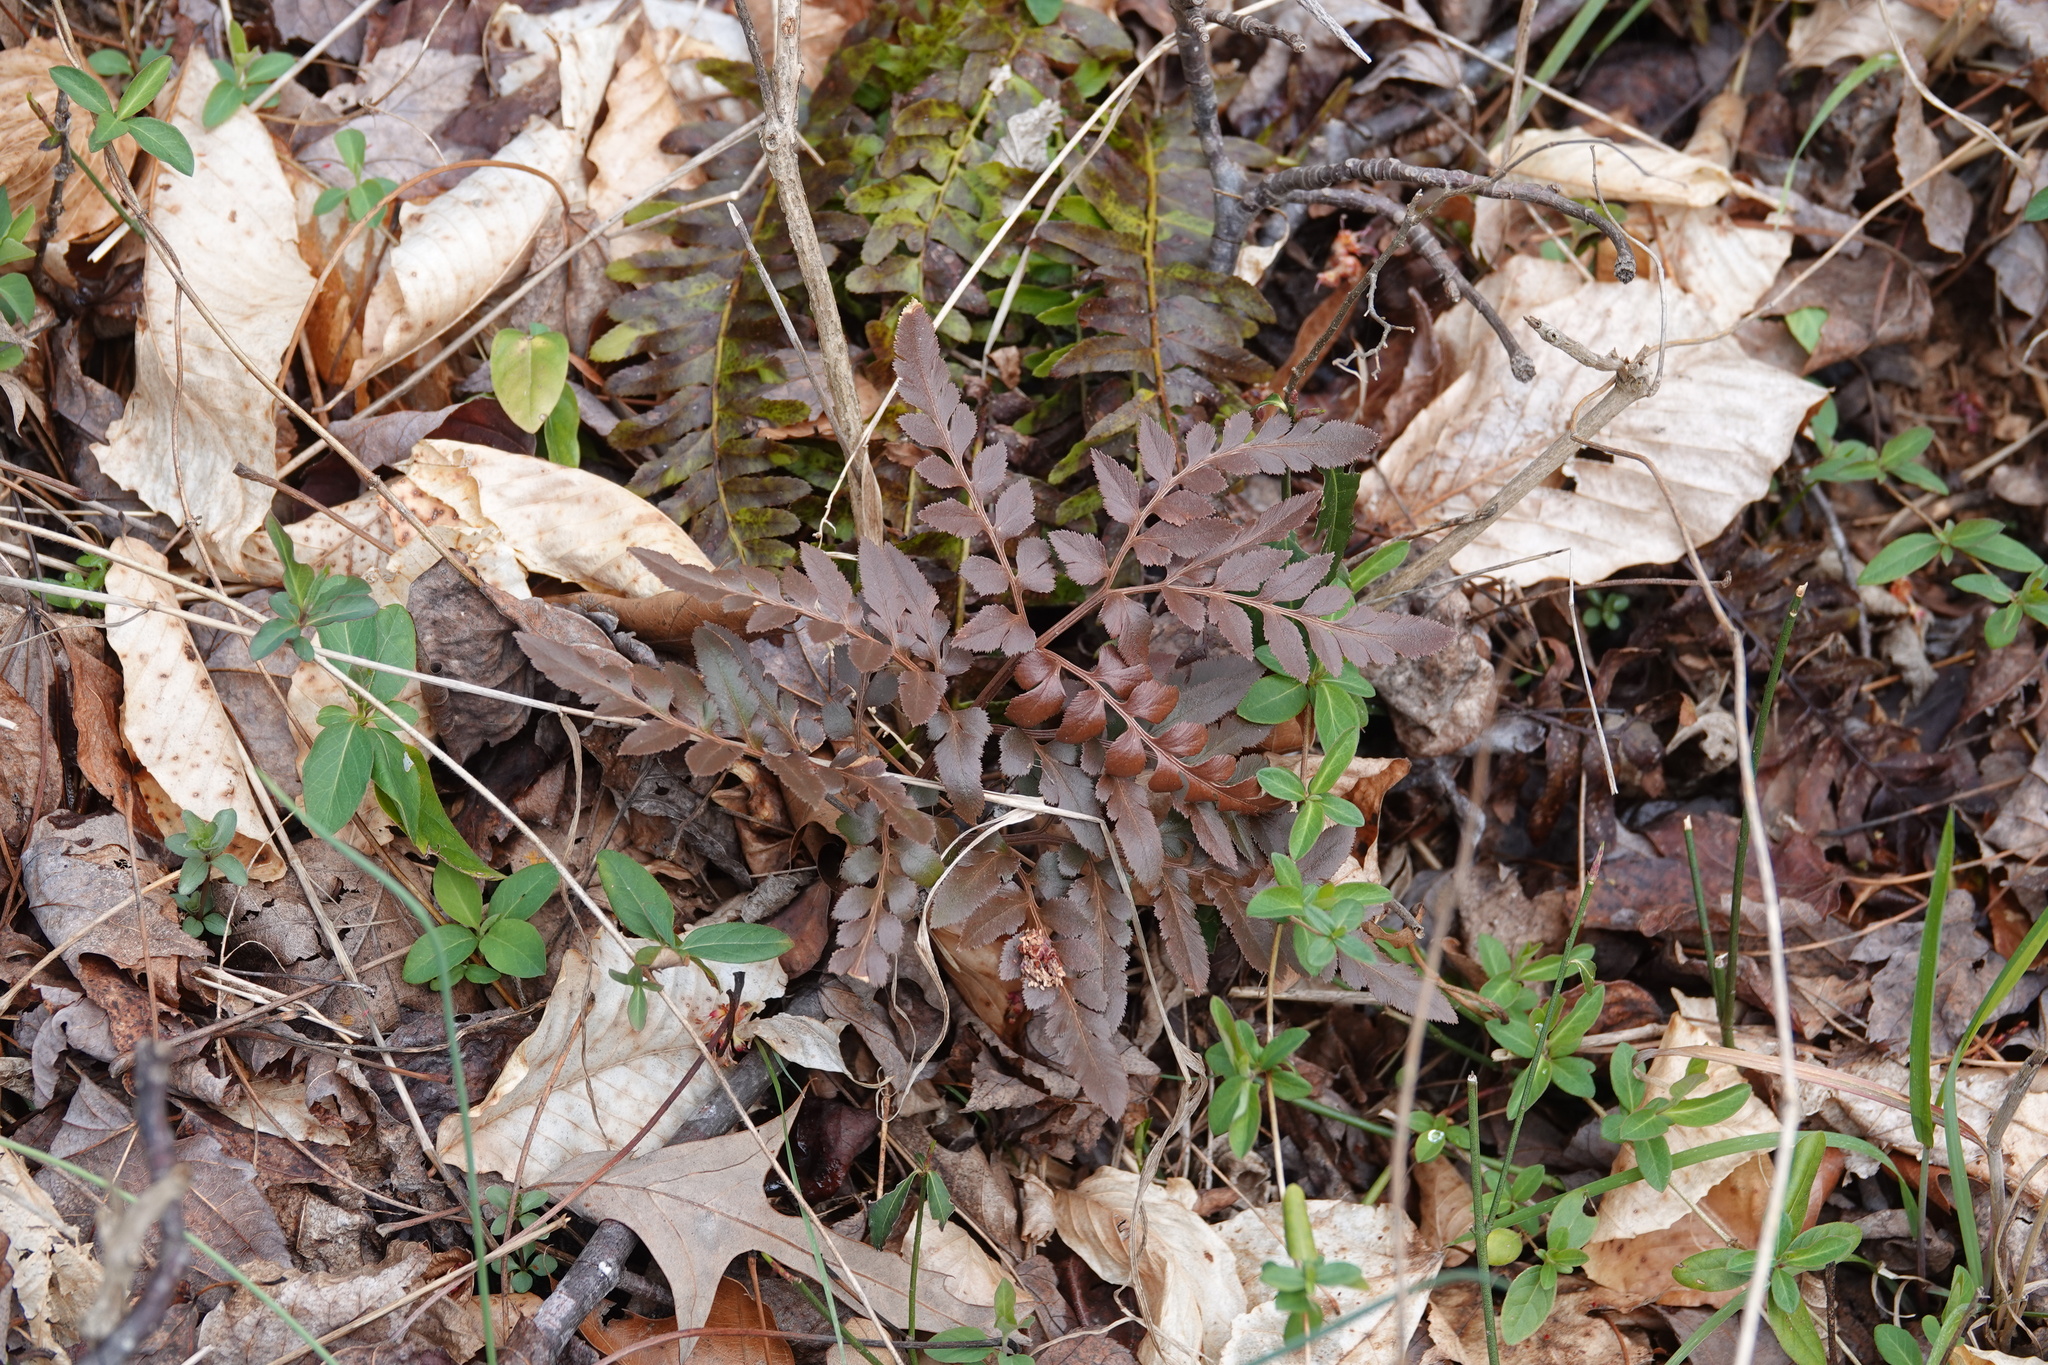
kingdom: Plantae
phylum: Tracheophyta
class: Polypodiopsida
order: Ophioglossales
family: Ophioglossaceae
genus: Sceptridium
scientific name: Sceptridium dissectum
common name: Cut-leaved grapefern
